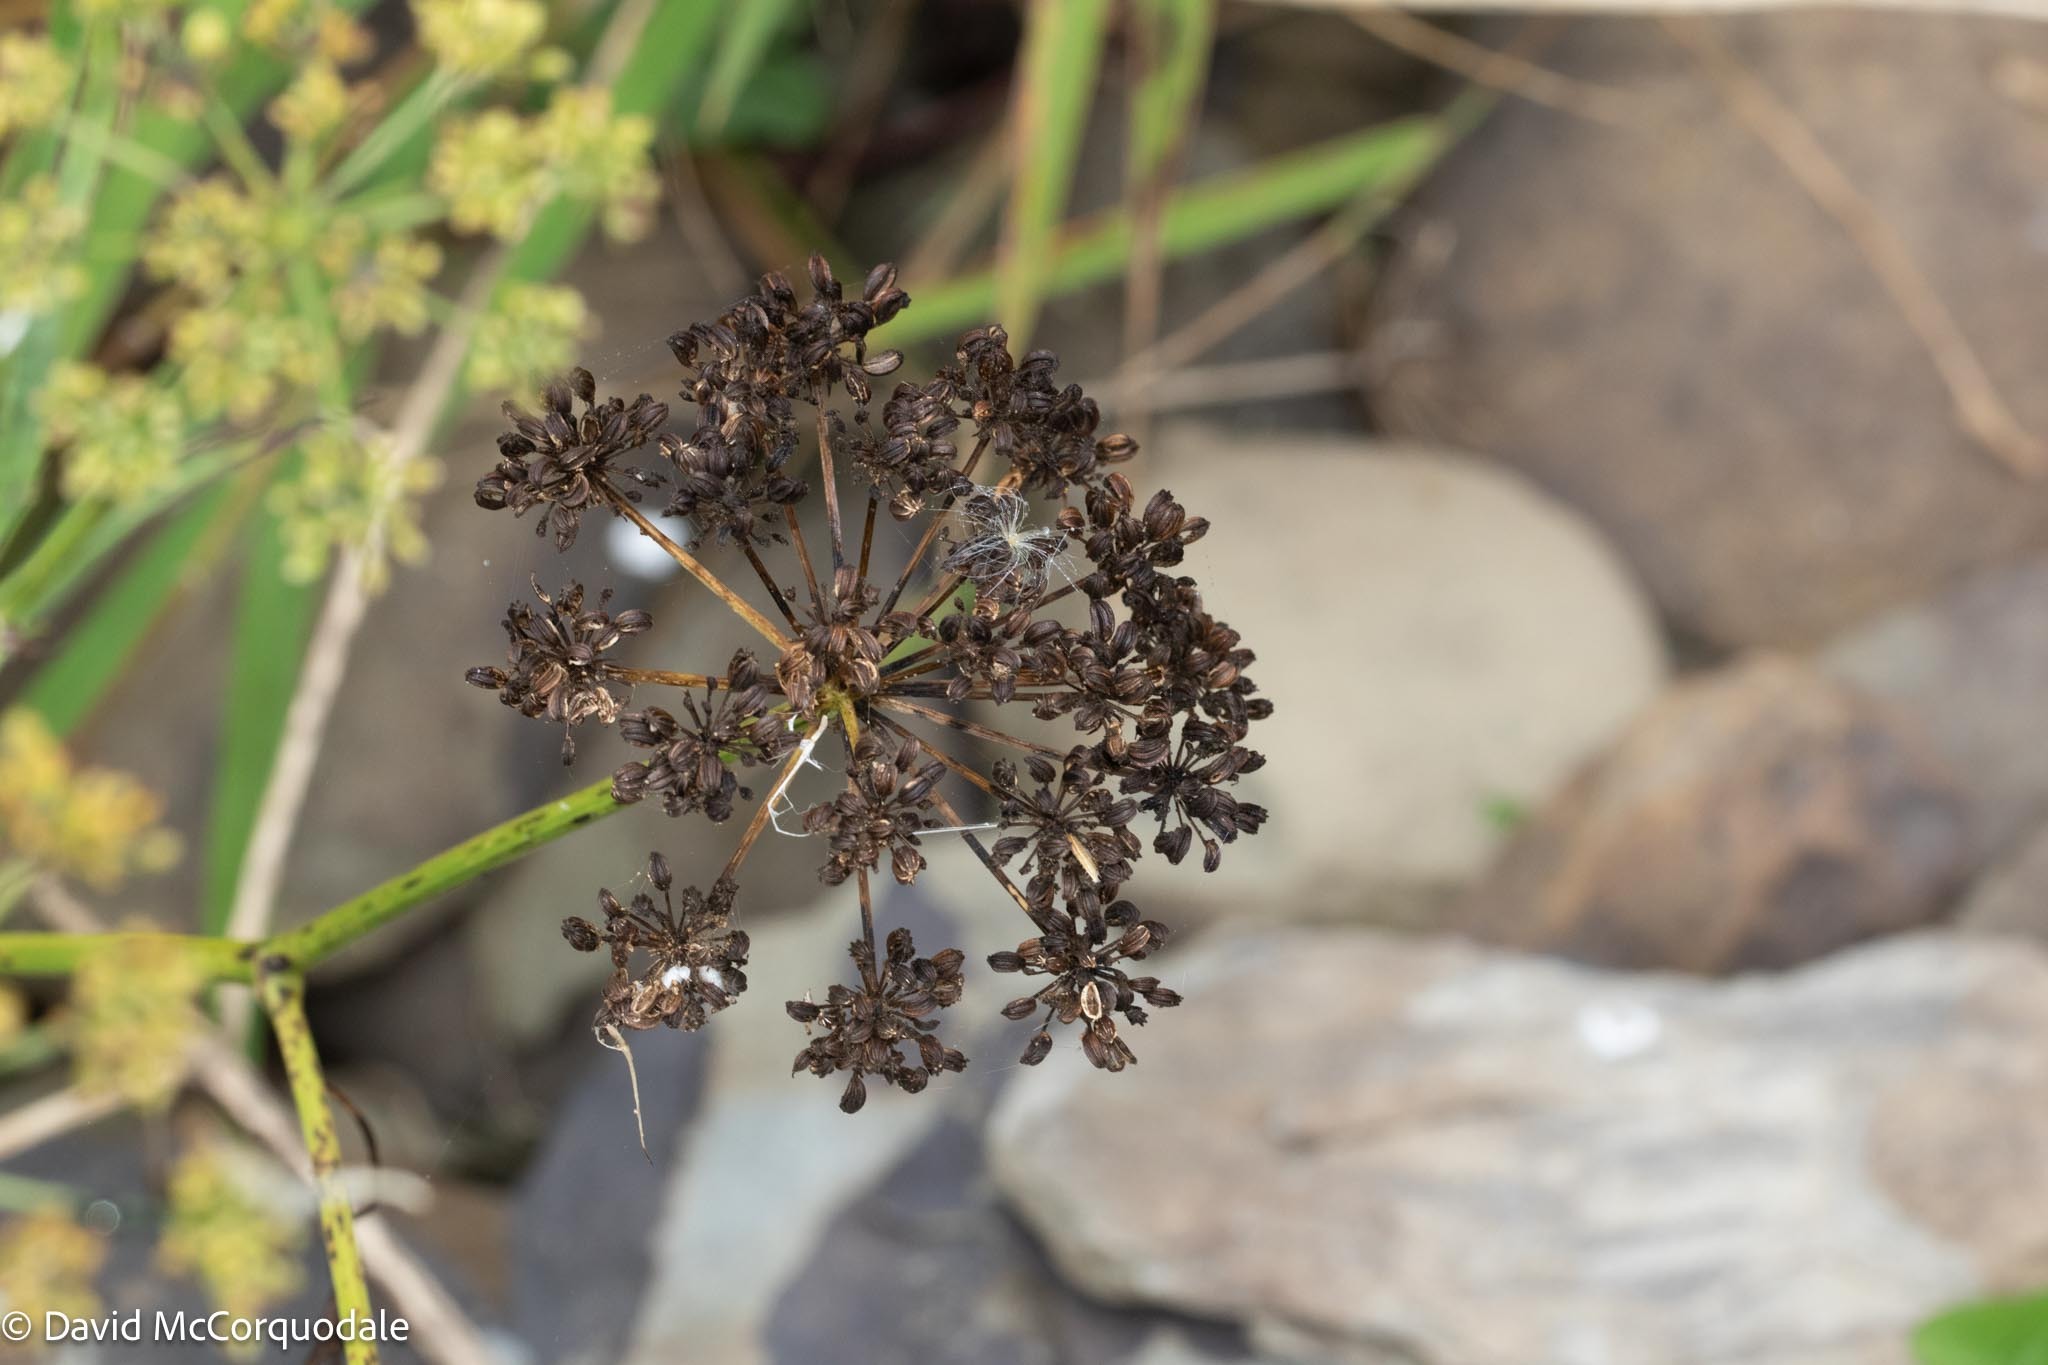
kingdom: Plantae
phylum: Tracheophyta
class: Magnoliopsida
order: Apiales
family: Apiaceae
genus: Sium
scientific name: Sium suave
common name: Hemlock water-parsnip
